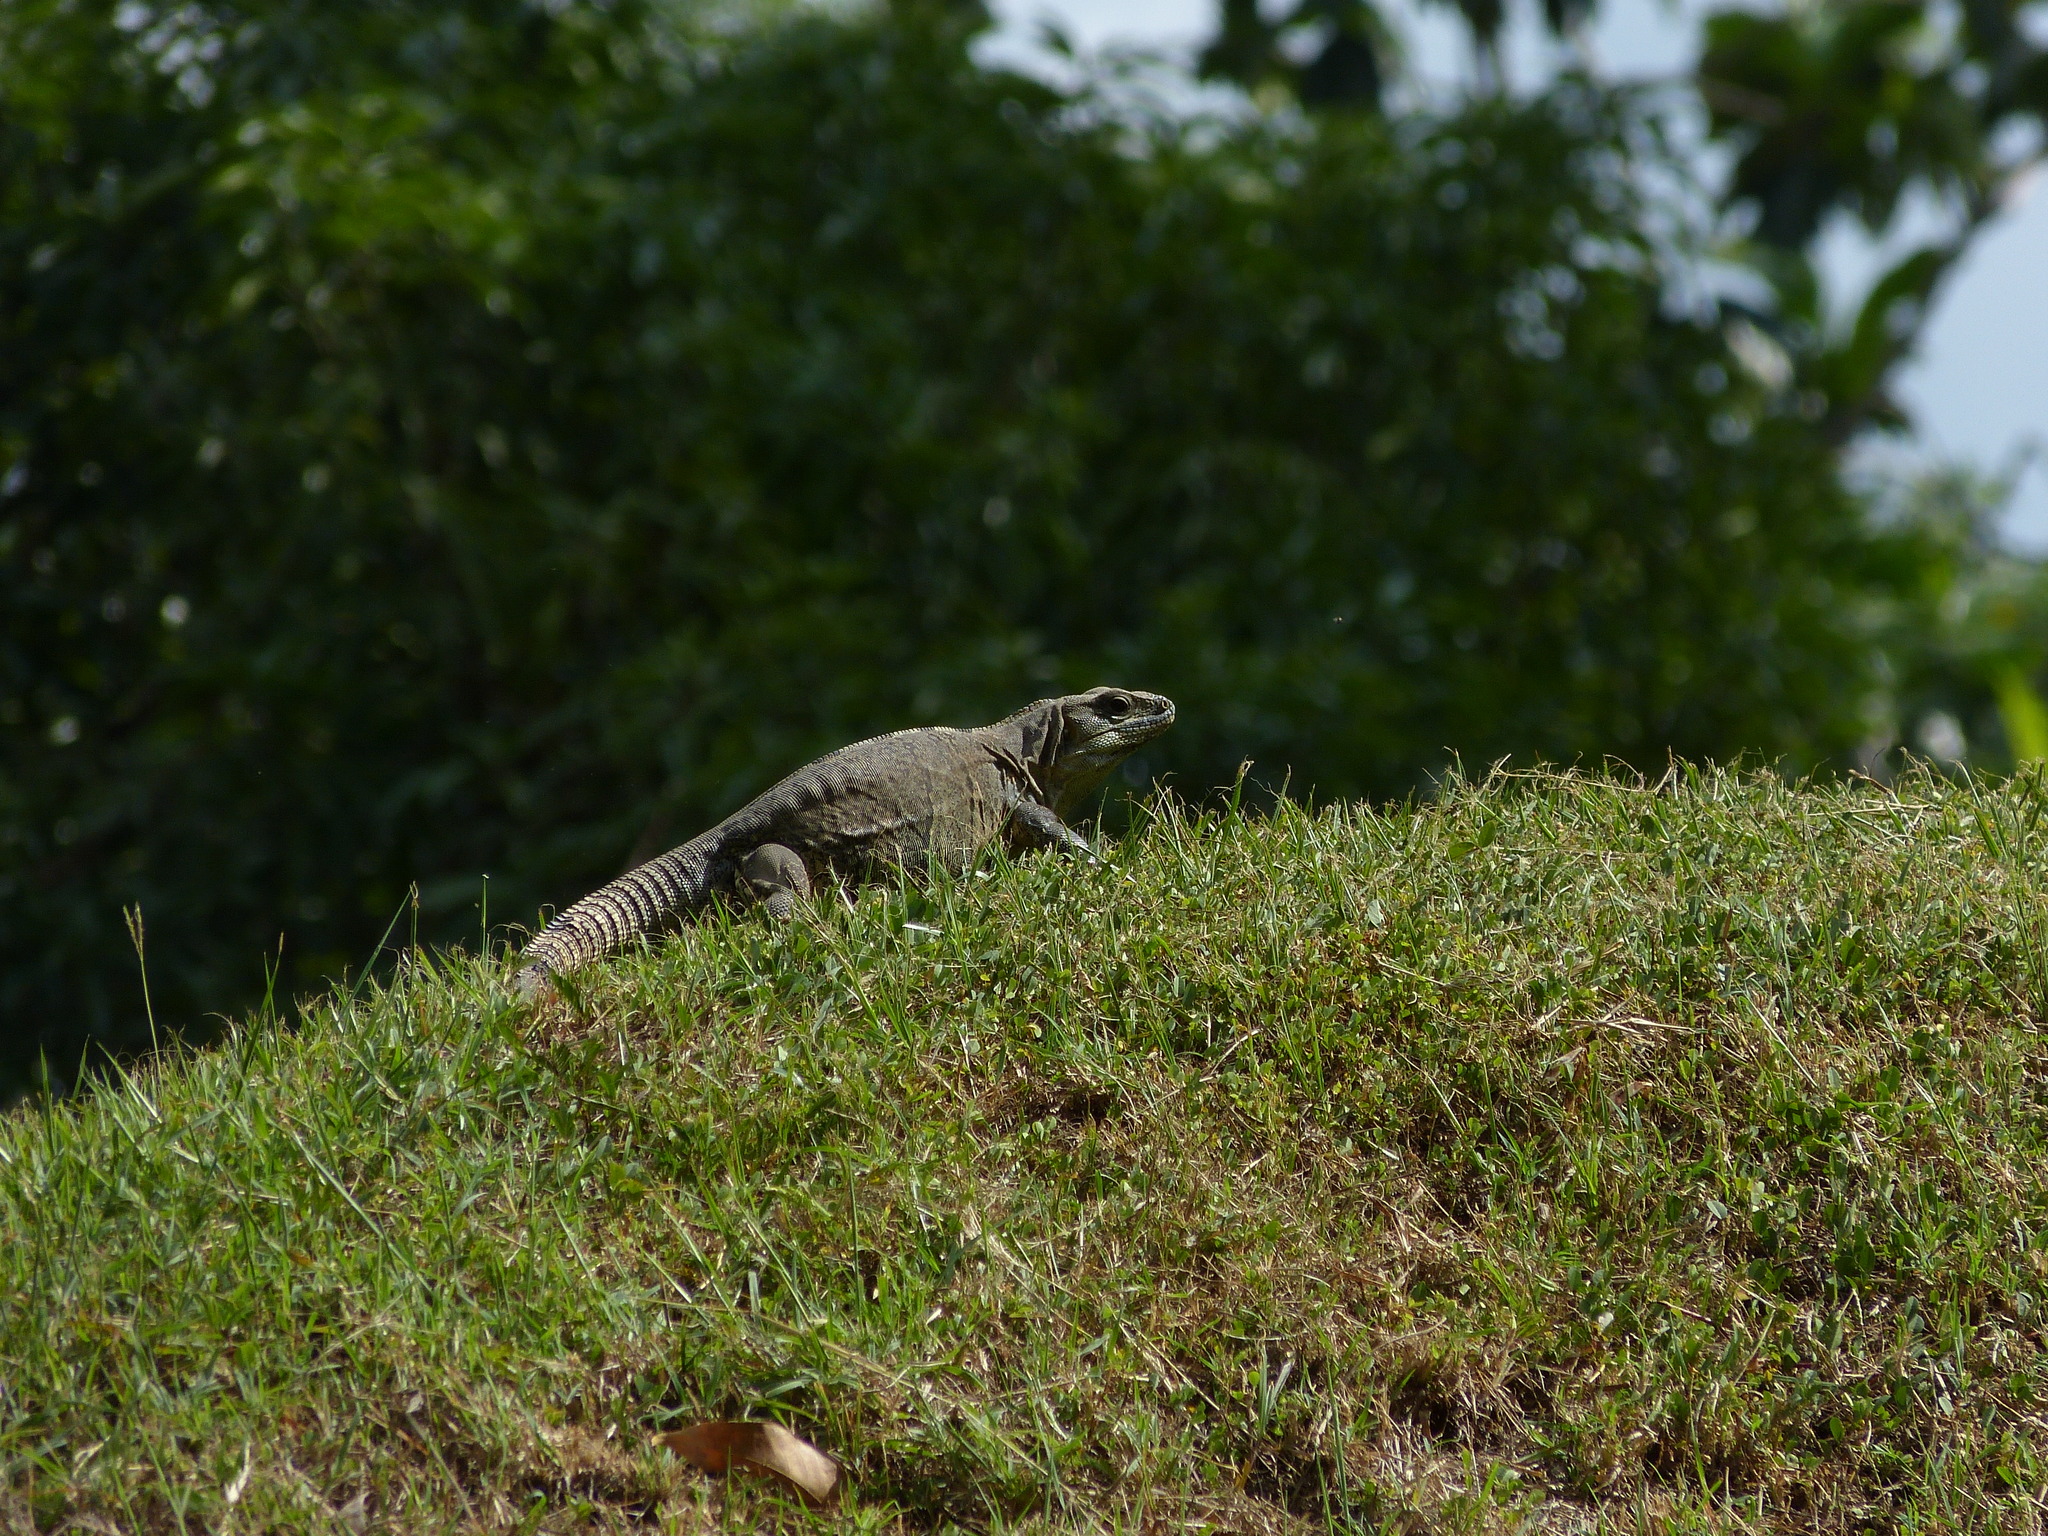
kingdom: Animalia
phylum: Chordata
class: Squamata
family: Iguanidae
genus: Ctenosaura
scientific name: Ctenosaura acanthura
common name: Northeastern spinytail iguana
